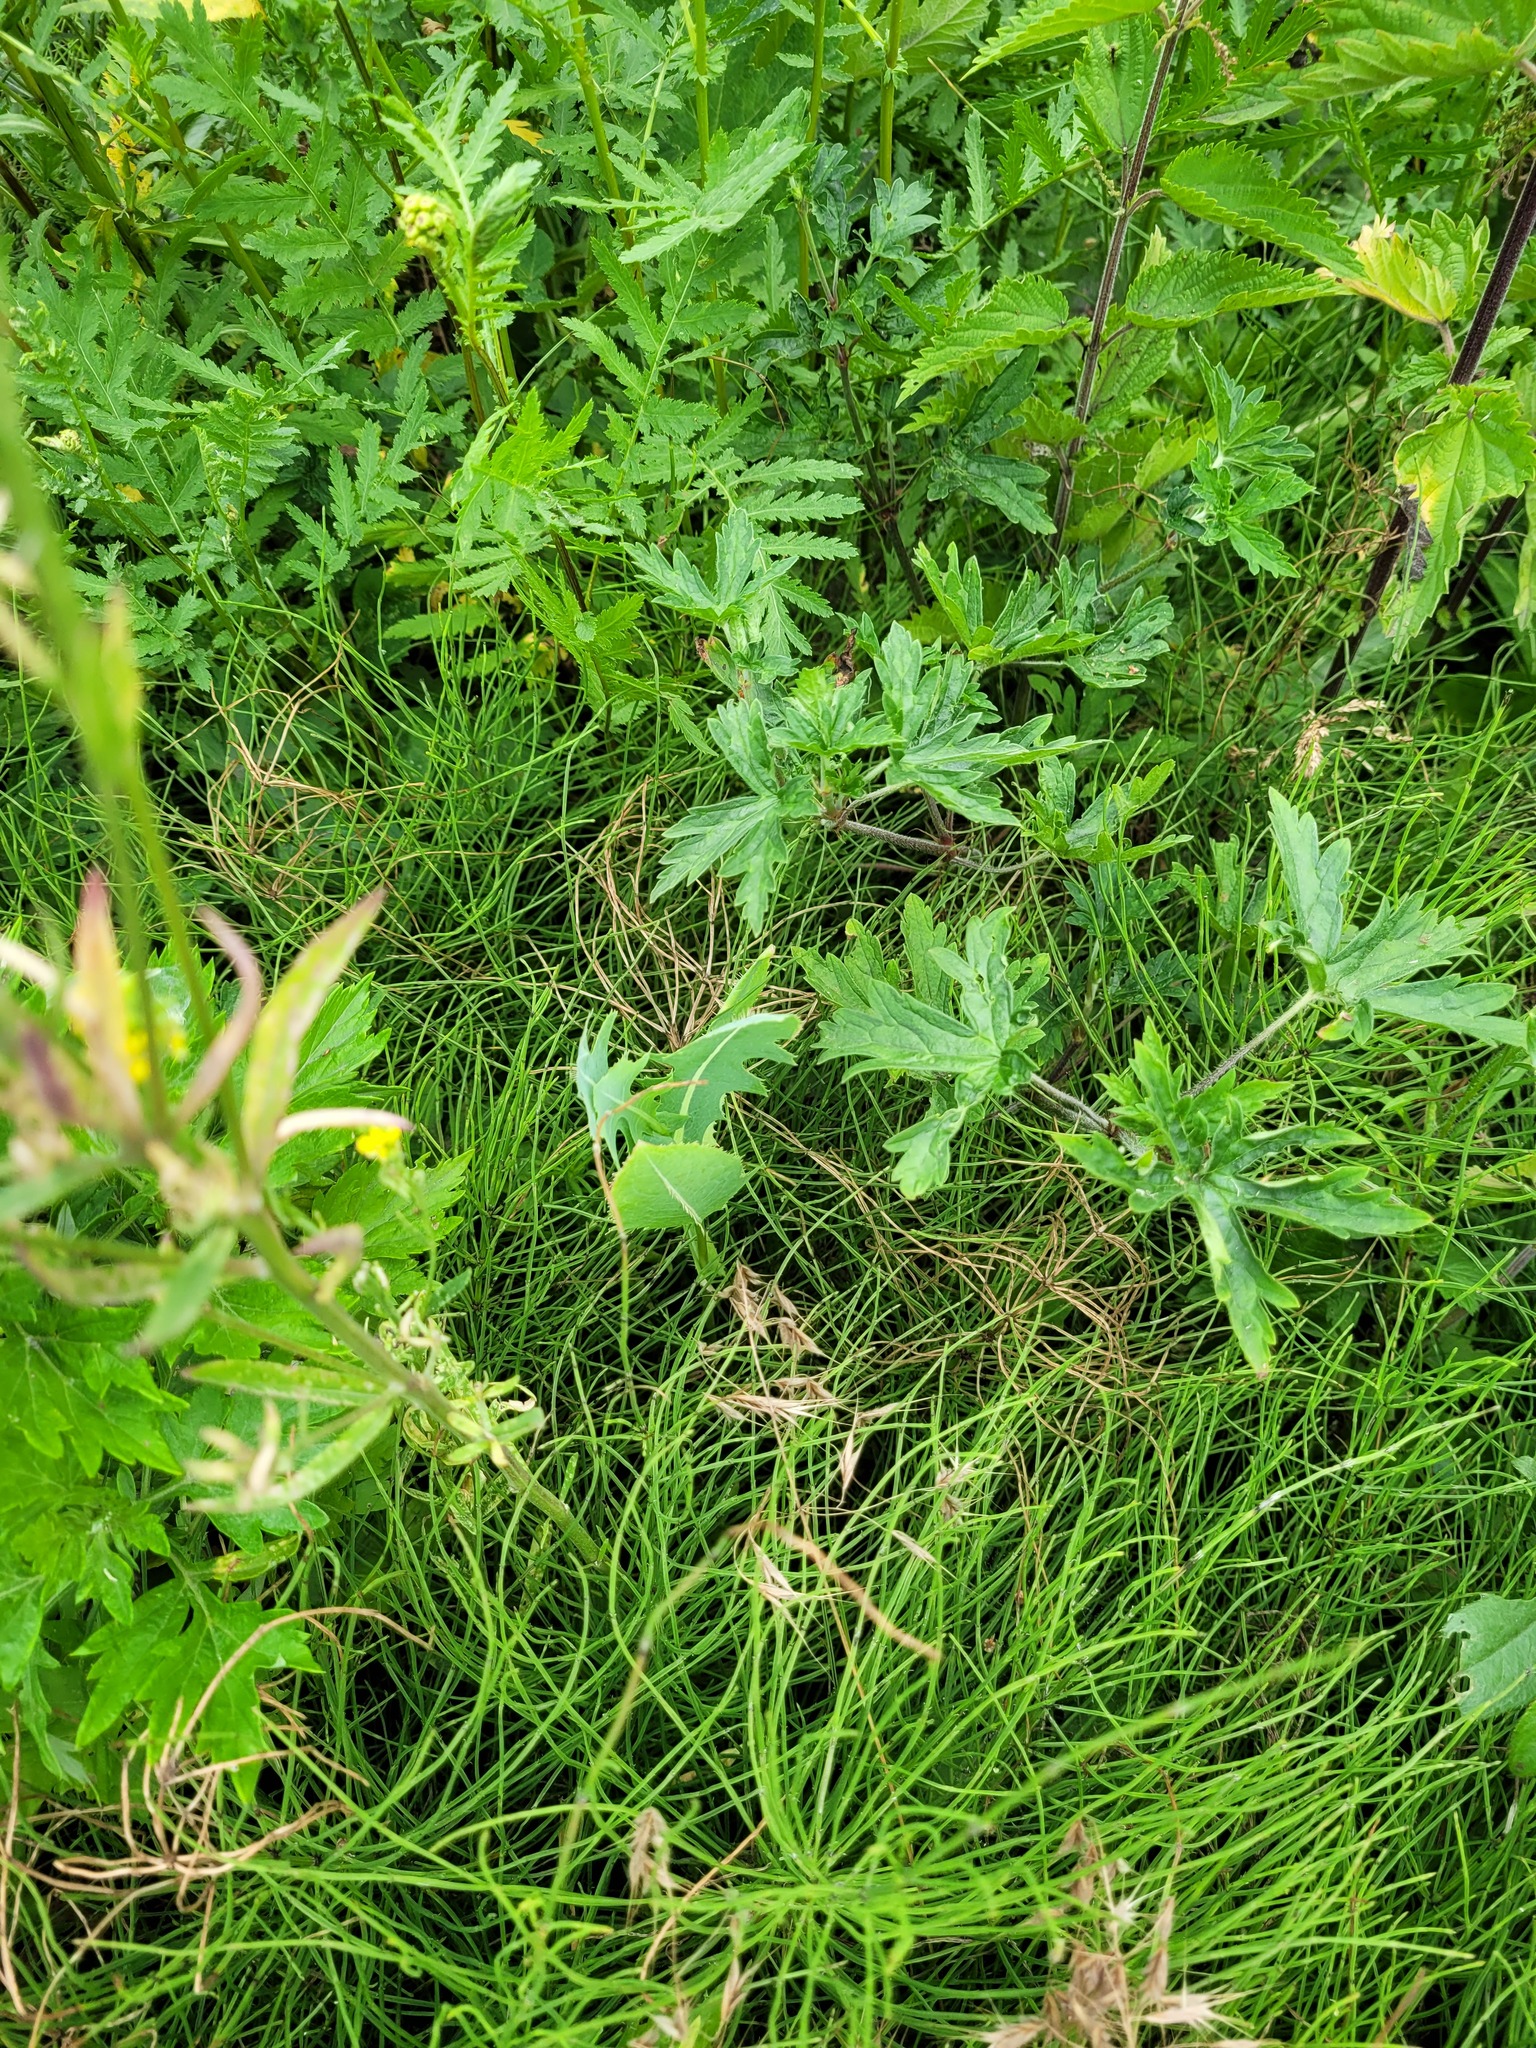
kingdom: Plantae
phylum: Tracheophyta
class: Magnoliopsida
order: Asterales
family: Asteraceae
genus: Lactuca
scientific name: Lactuca serriola
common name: Prickly lettuce
